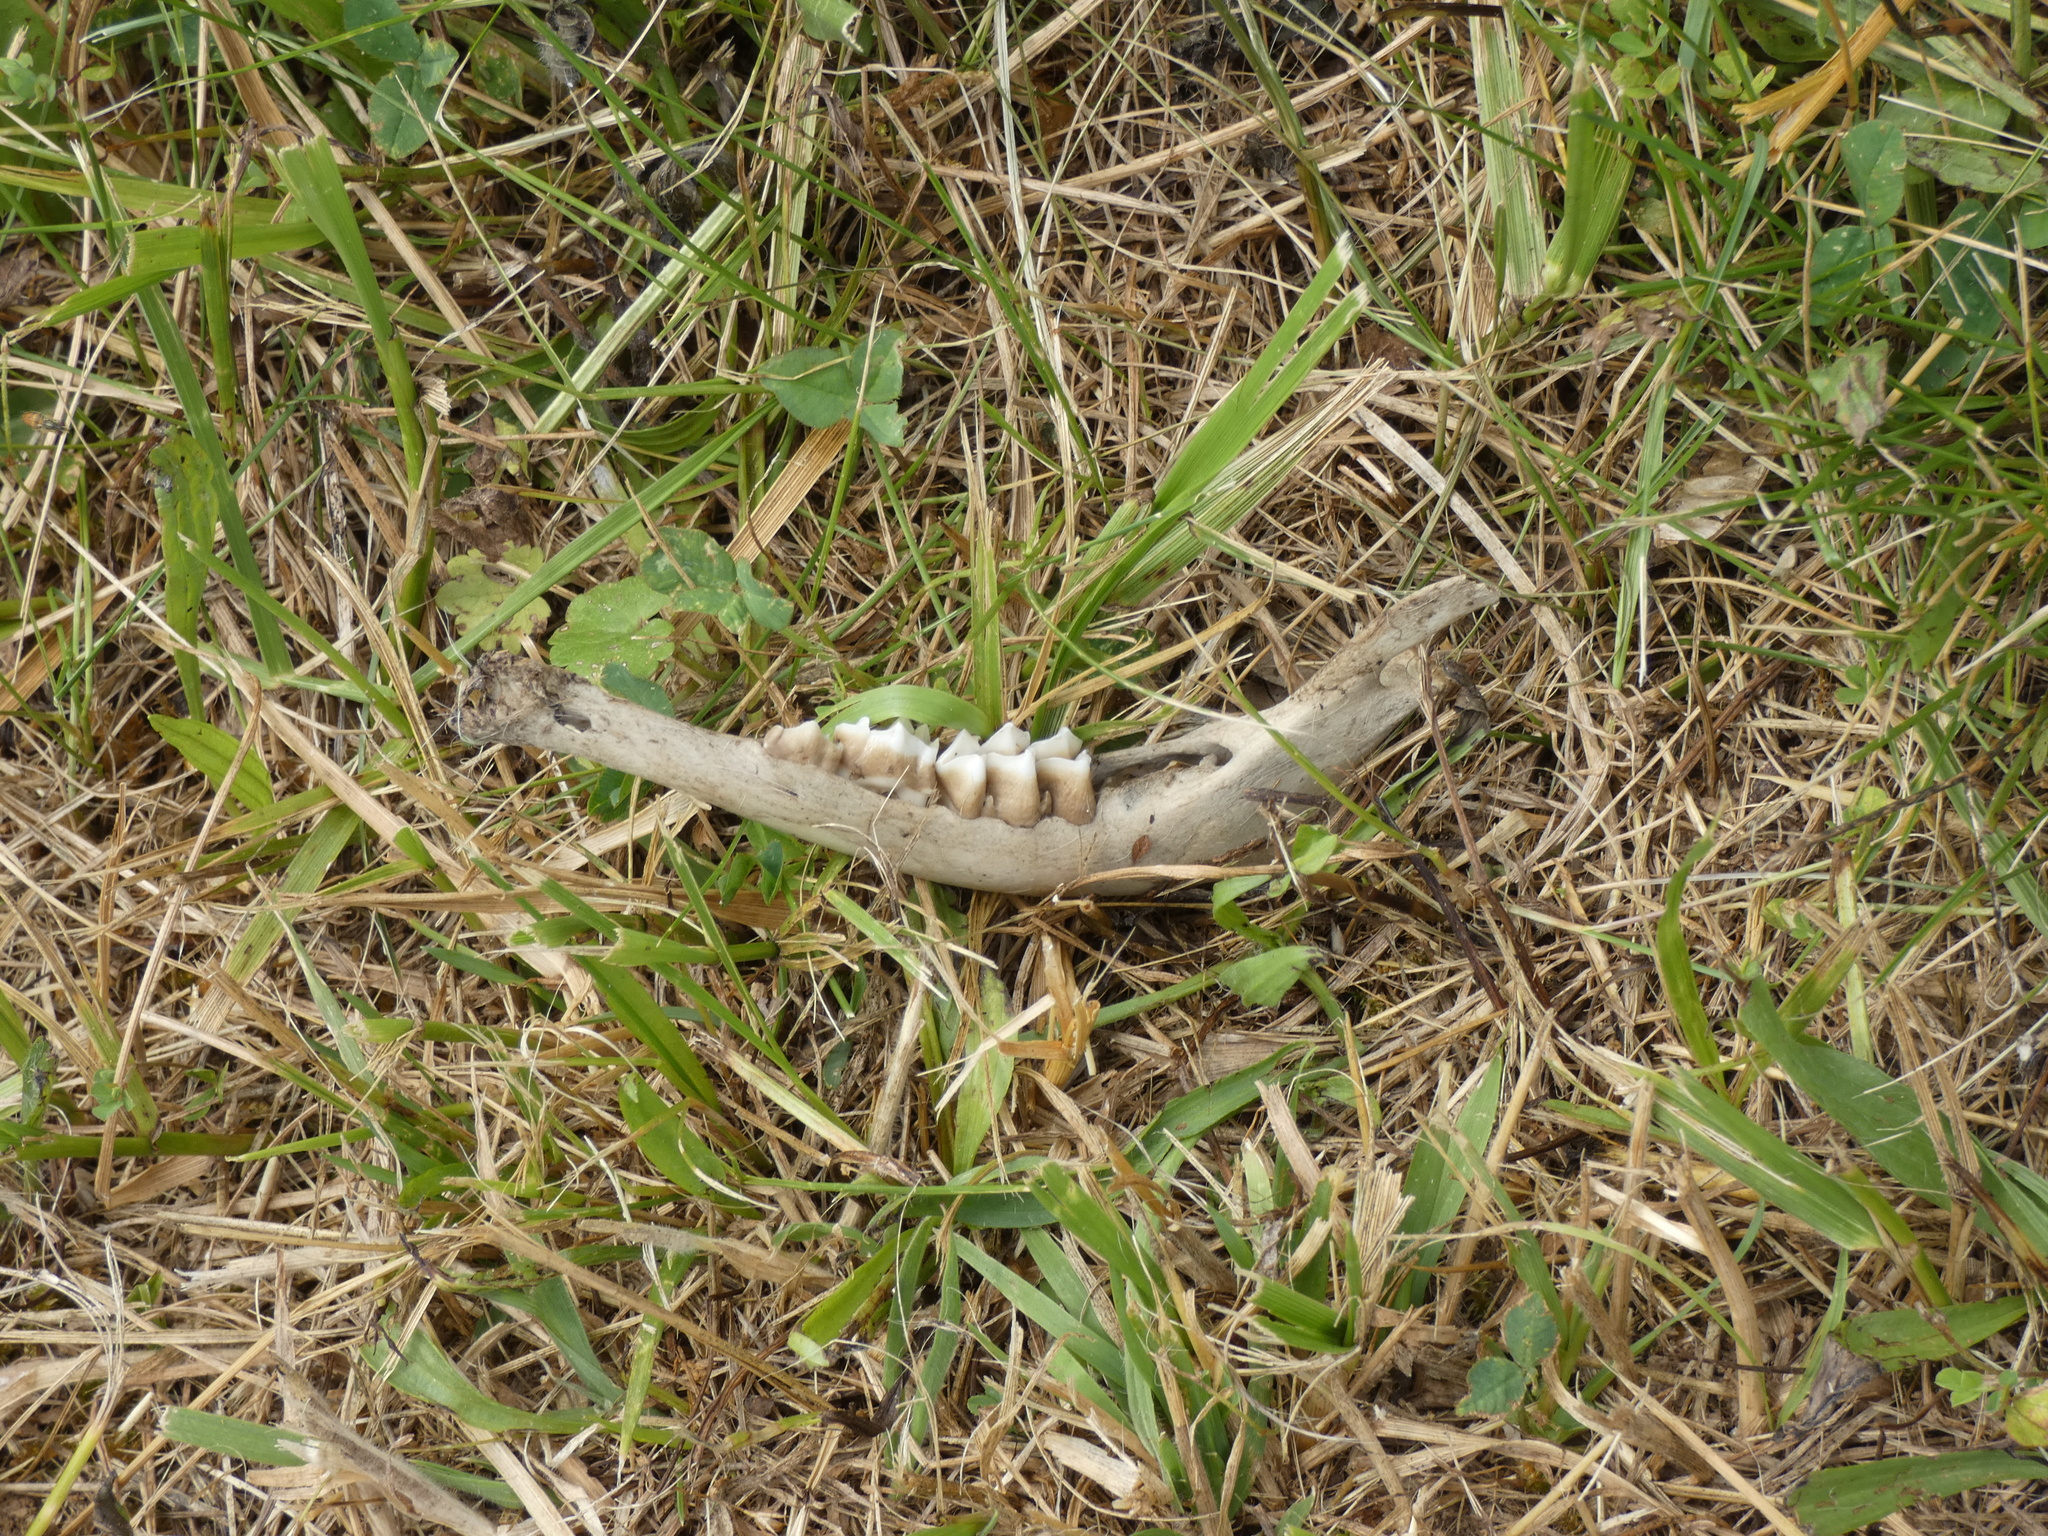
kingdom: Animalia
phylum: Chordata
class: Mammalia
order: Artiodactyla
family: Cervidae
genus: Odocoileus
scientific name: Odocoileus virginianus
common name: White-tailed deer
